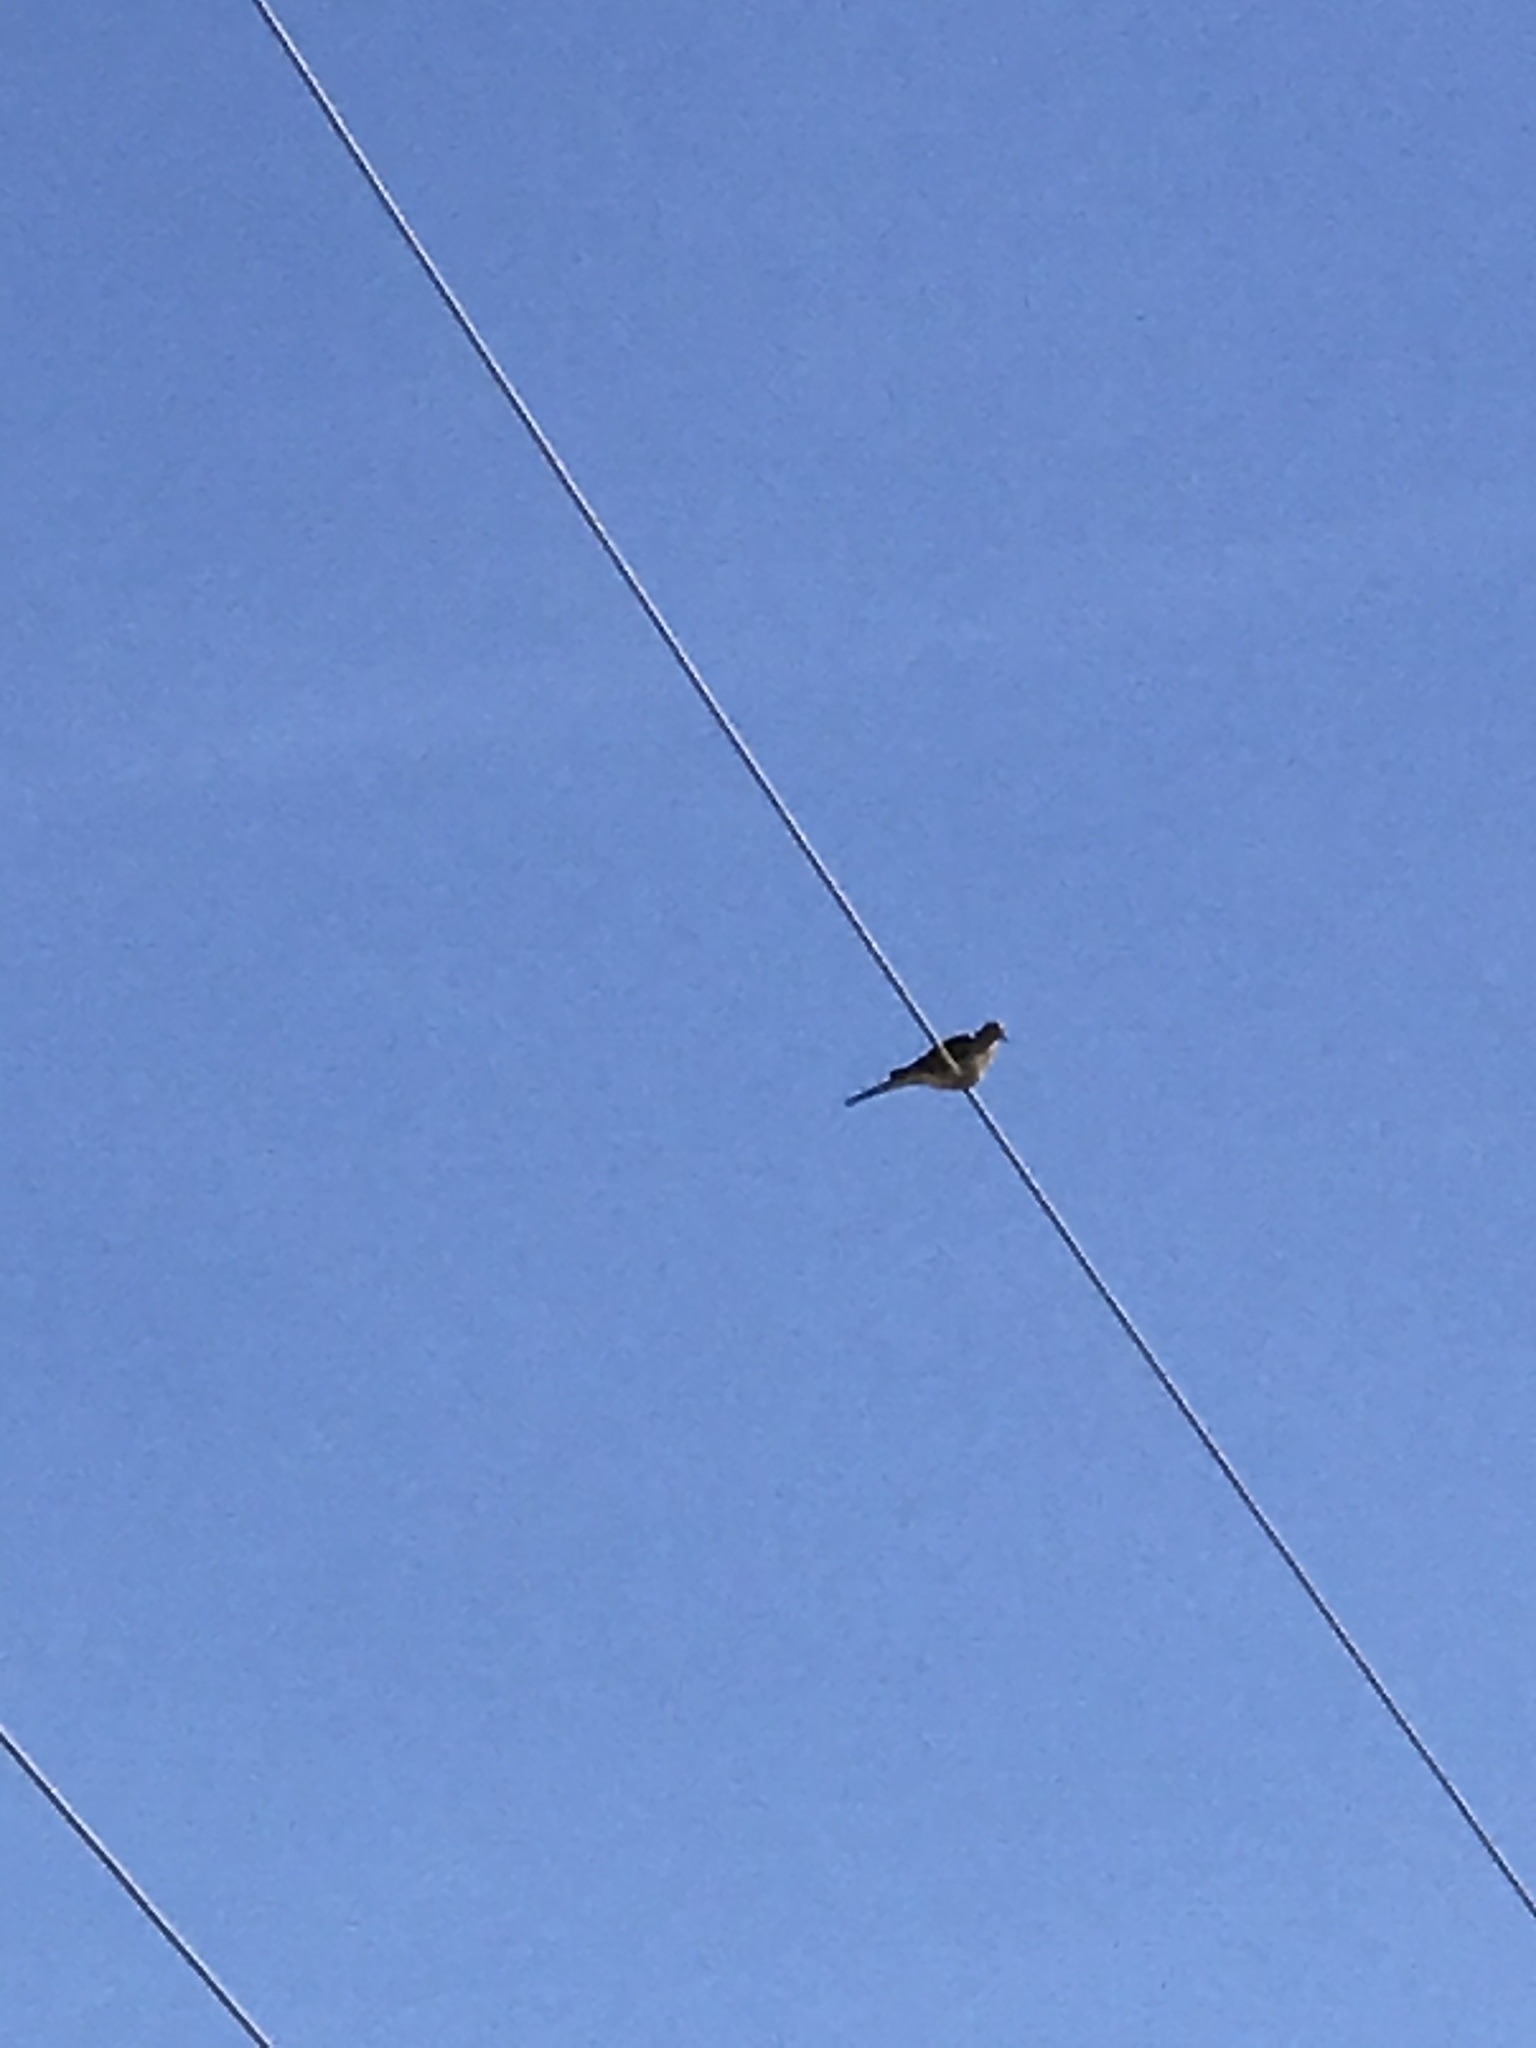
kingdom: Animalia
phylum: Chordata
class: Aves
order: Columbiformes
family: Columbidae
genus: Zenaida
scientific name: Zenaida macroura
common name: Mourning dove
